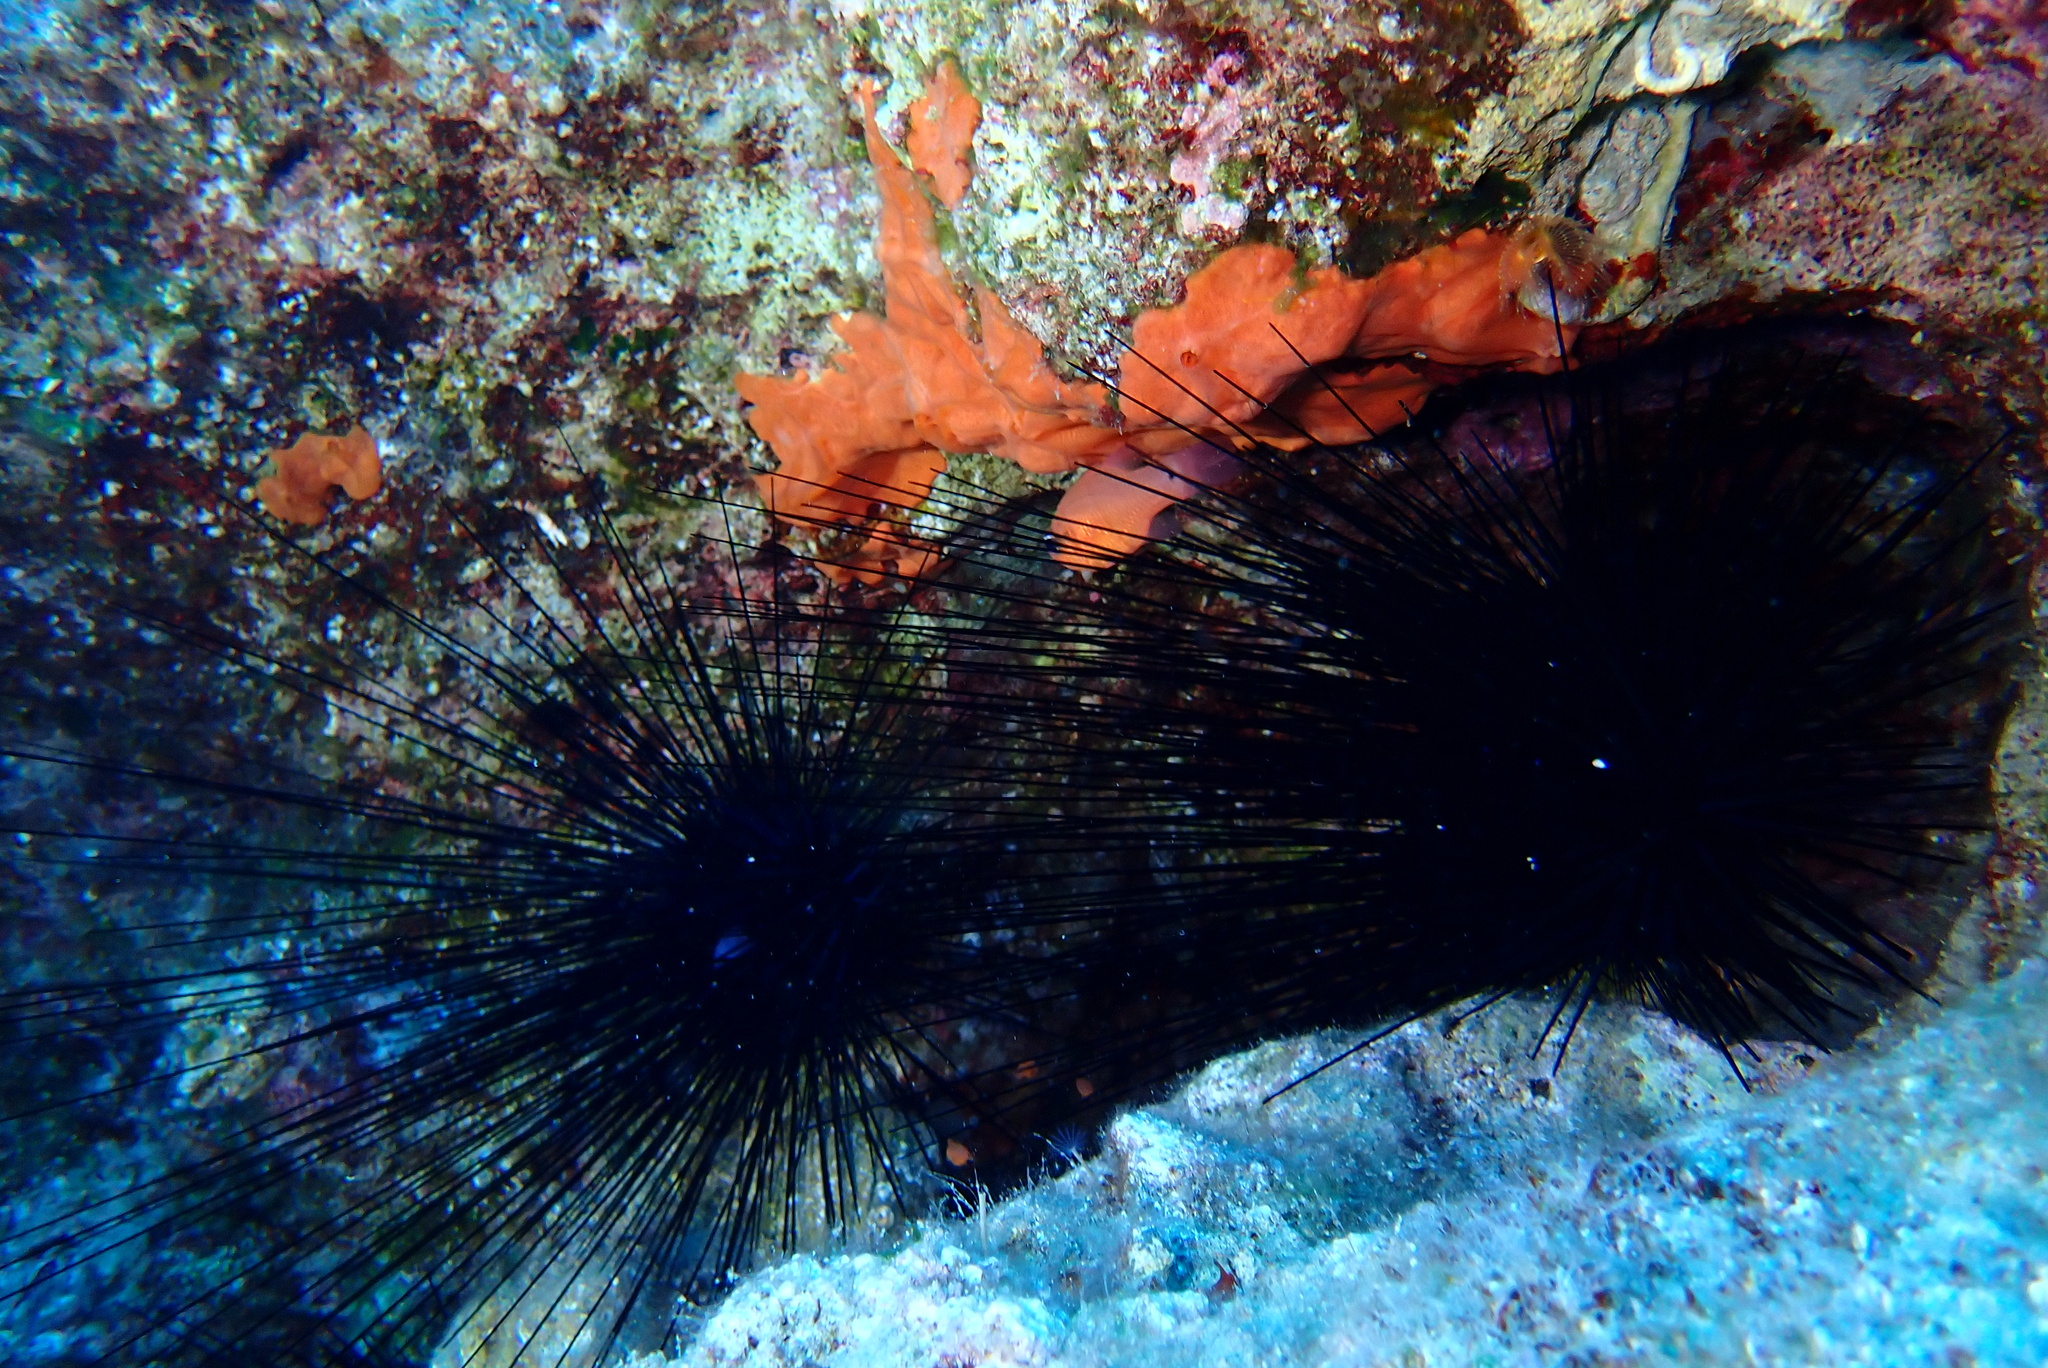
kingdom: Animalia
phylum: Echinodermata
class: Echinoidea
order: Diadematoida
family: Diadematidae
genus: Diadema
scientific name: Diadema setosum
